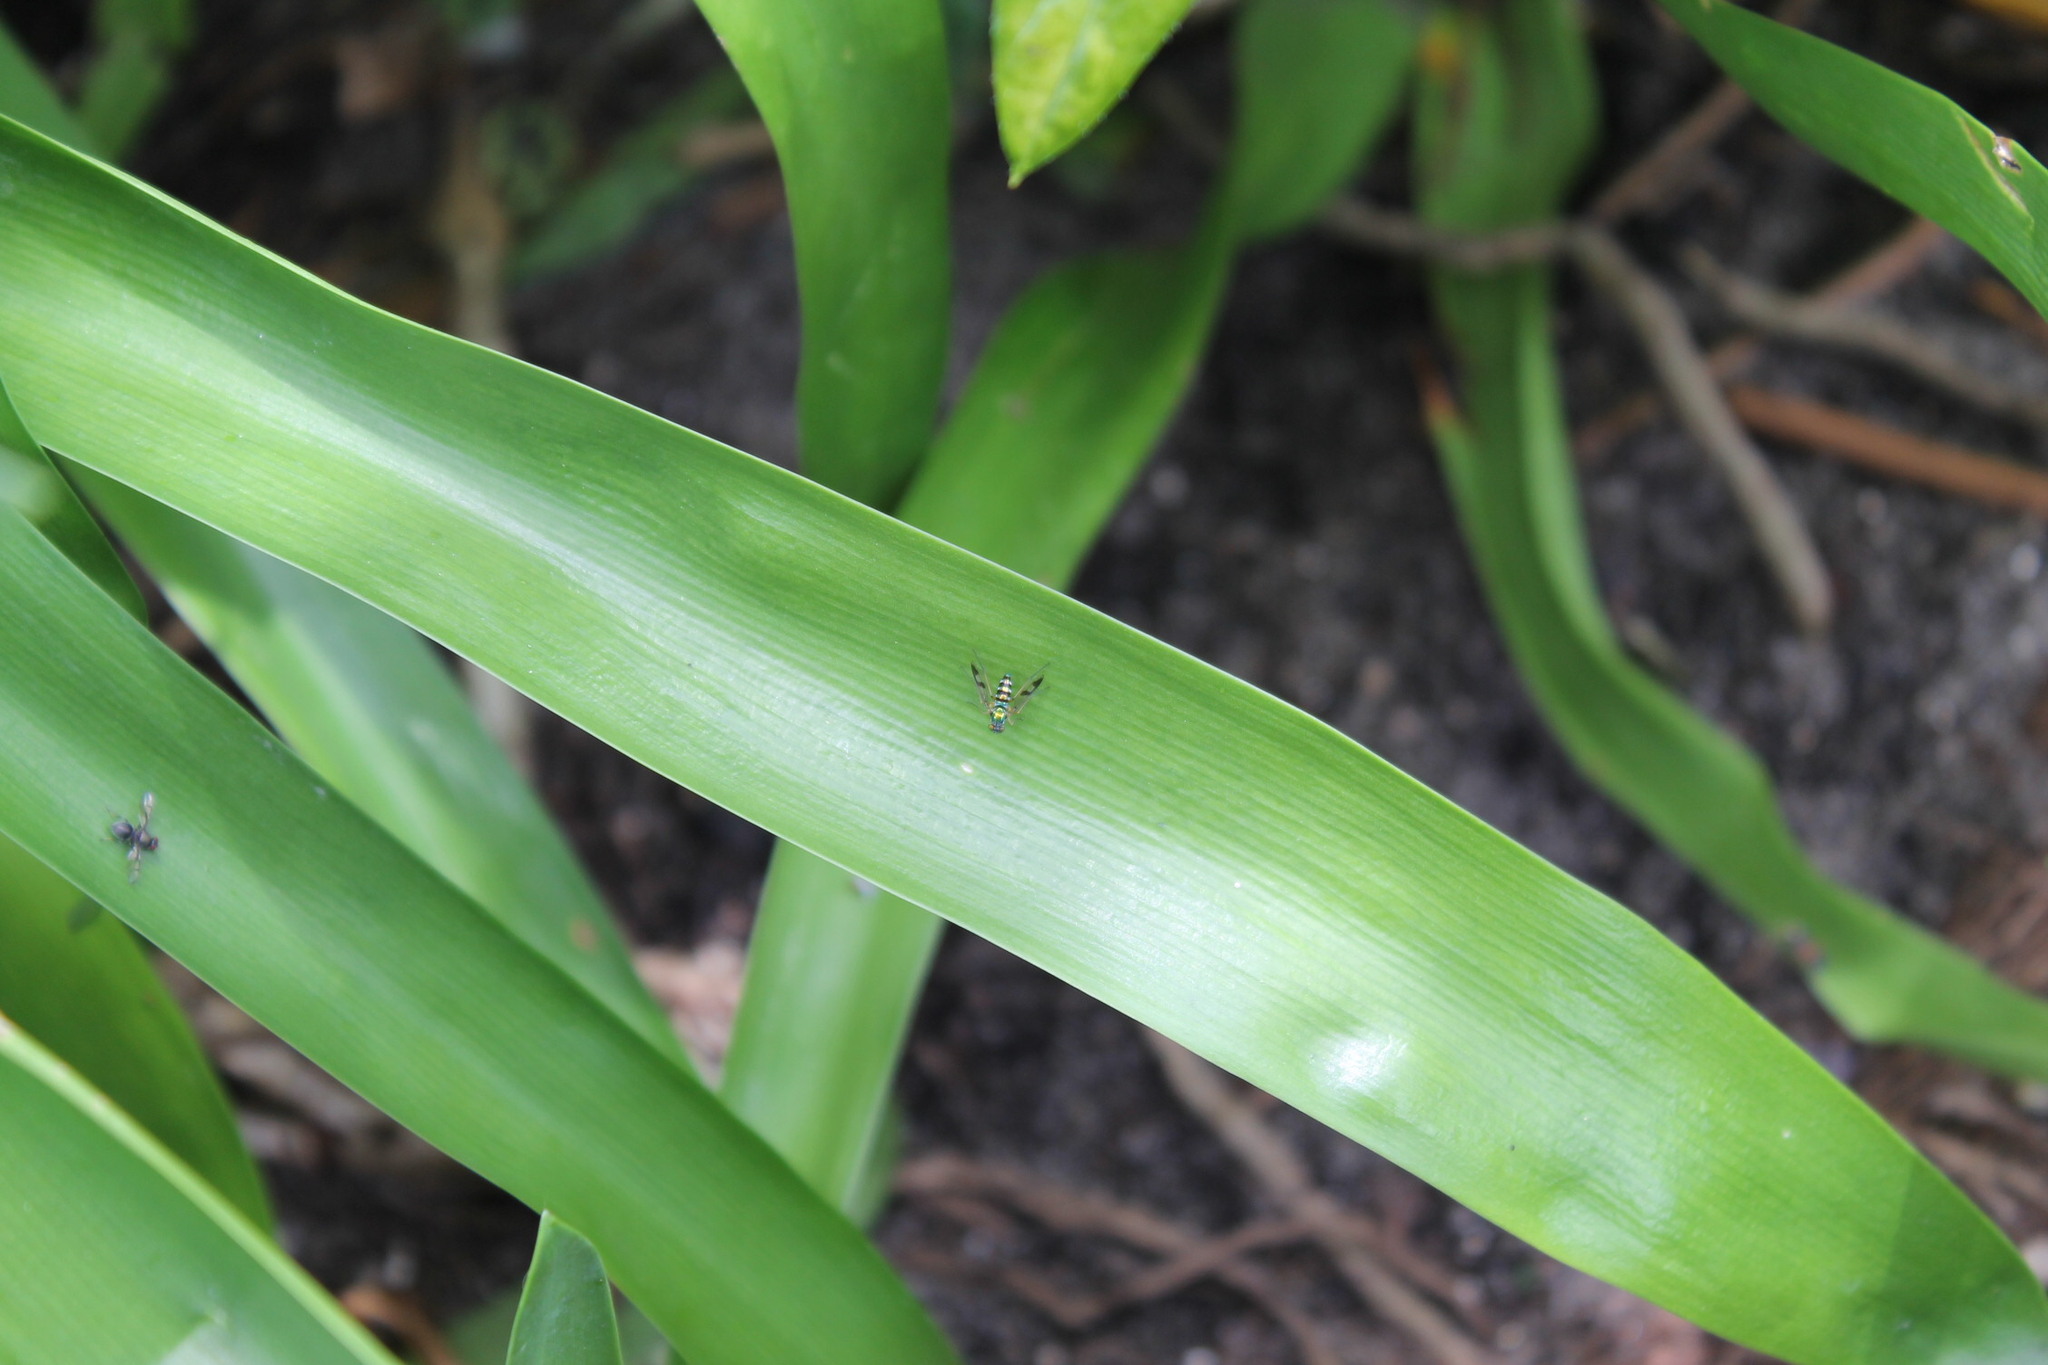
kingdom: Animalia
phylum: Arthropoda
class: Insecta
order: Diptera
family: Dolichopodidae
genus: Austrosciapus
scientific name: Austrosciapus connexus
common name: Green long-legged fly
